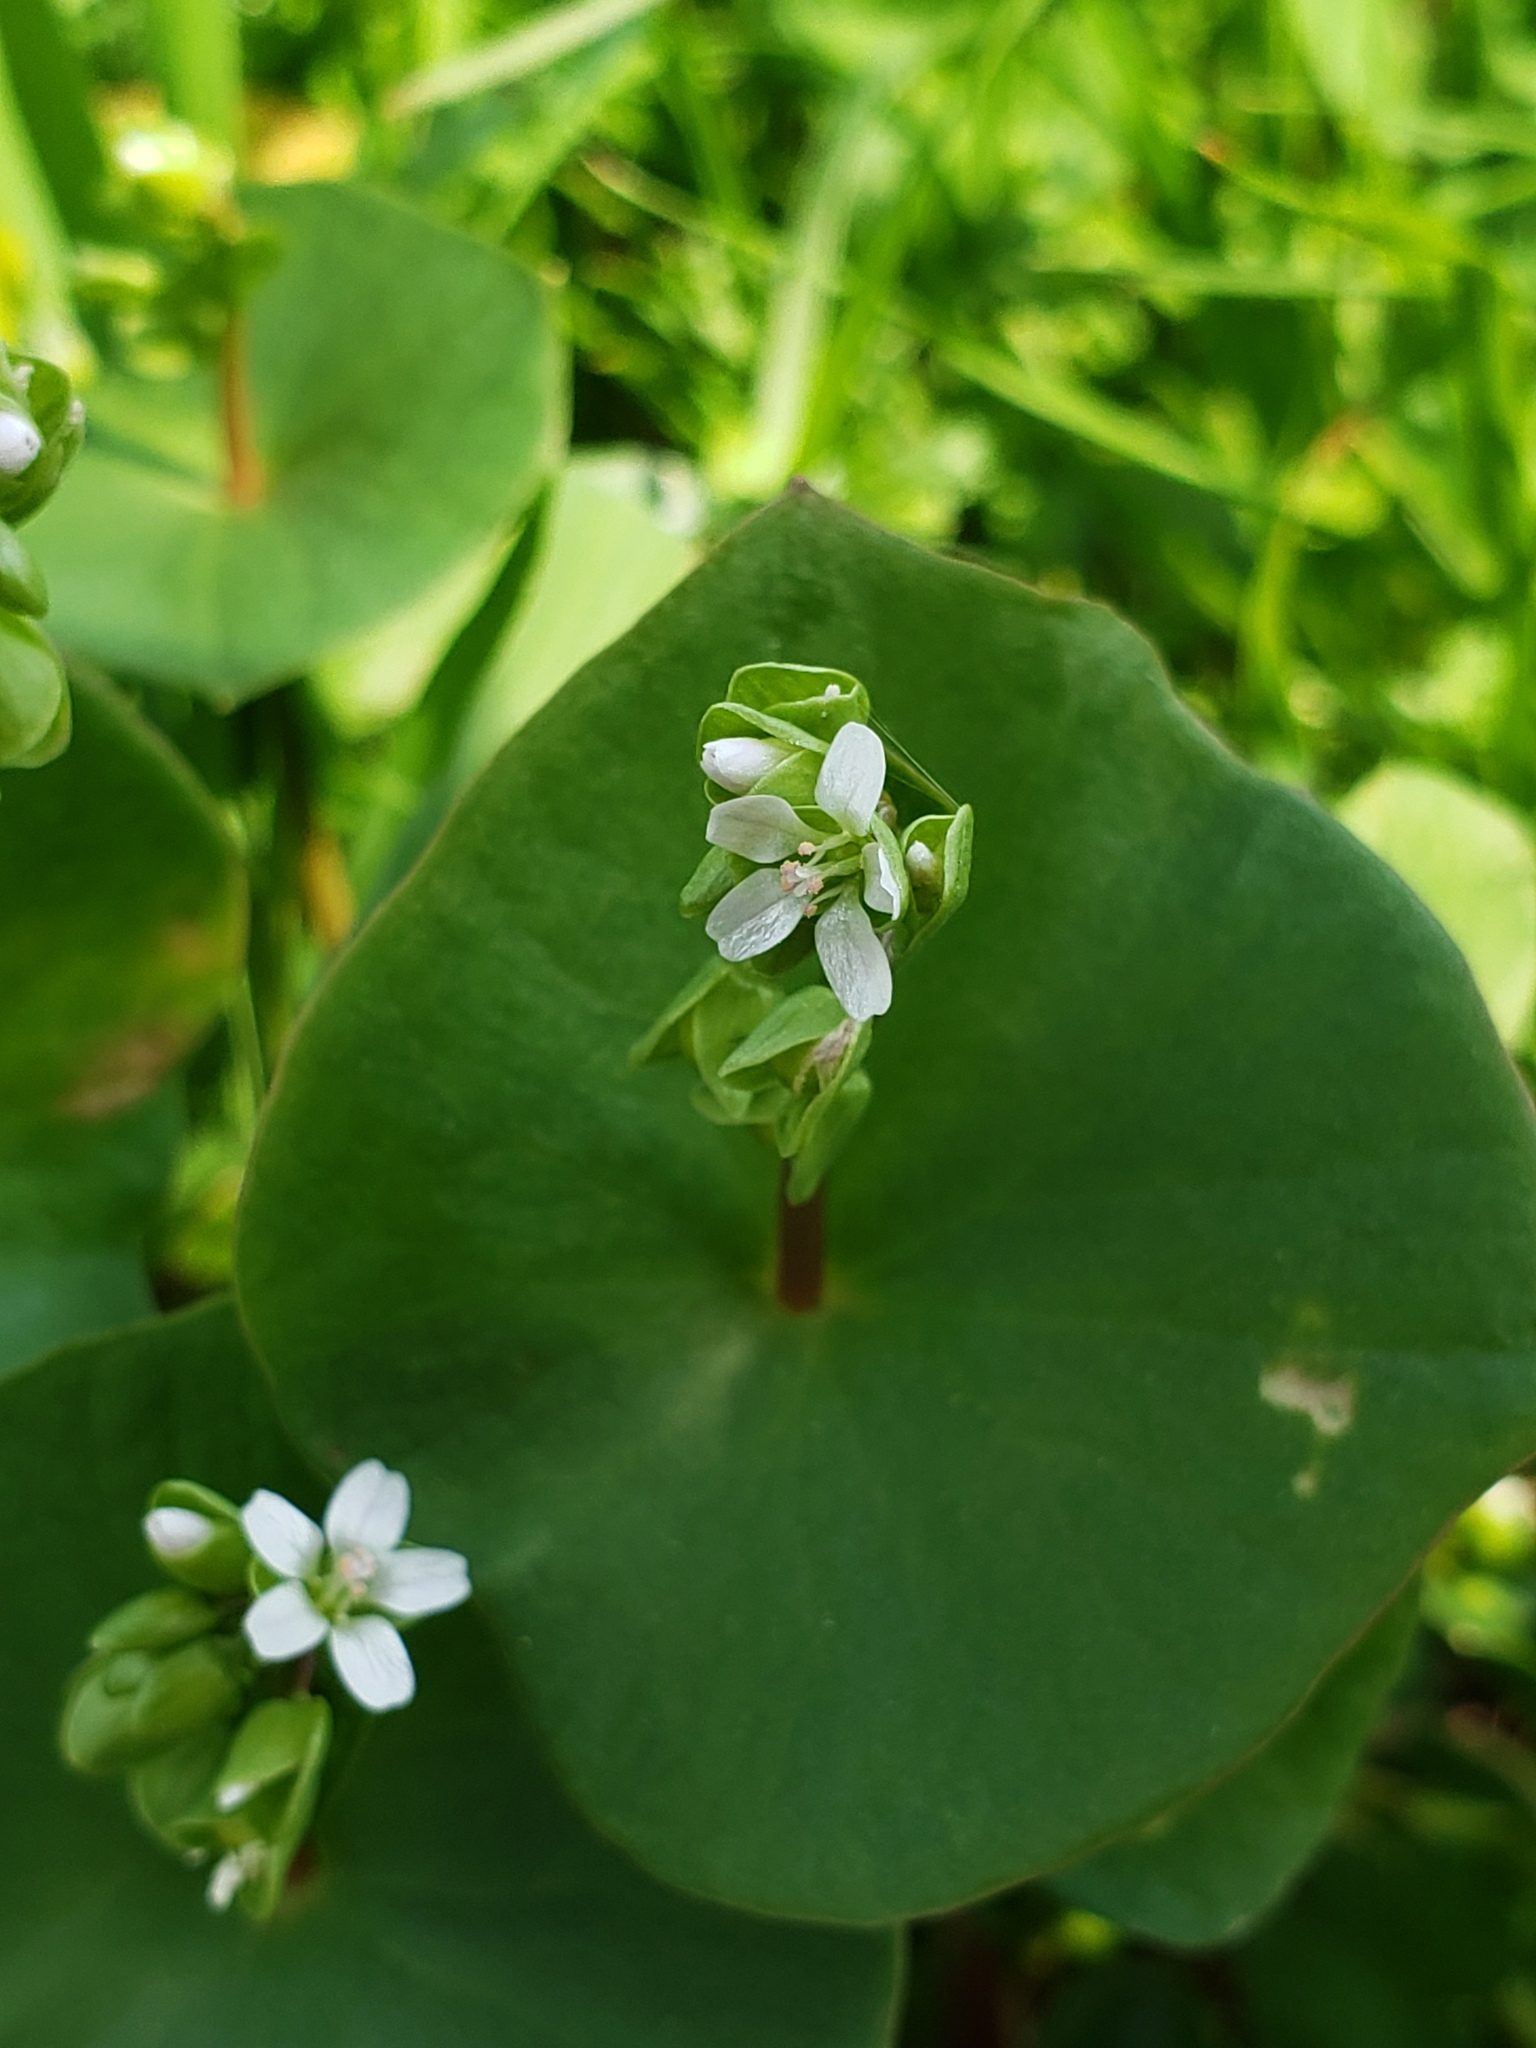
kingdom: Plantae
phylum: Tracheophyta
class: Magnoliopsida
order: Caryophyllales
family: Montiaceae
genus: Claytonia
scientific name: Claytonia perfoliata
